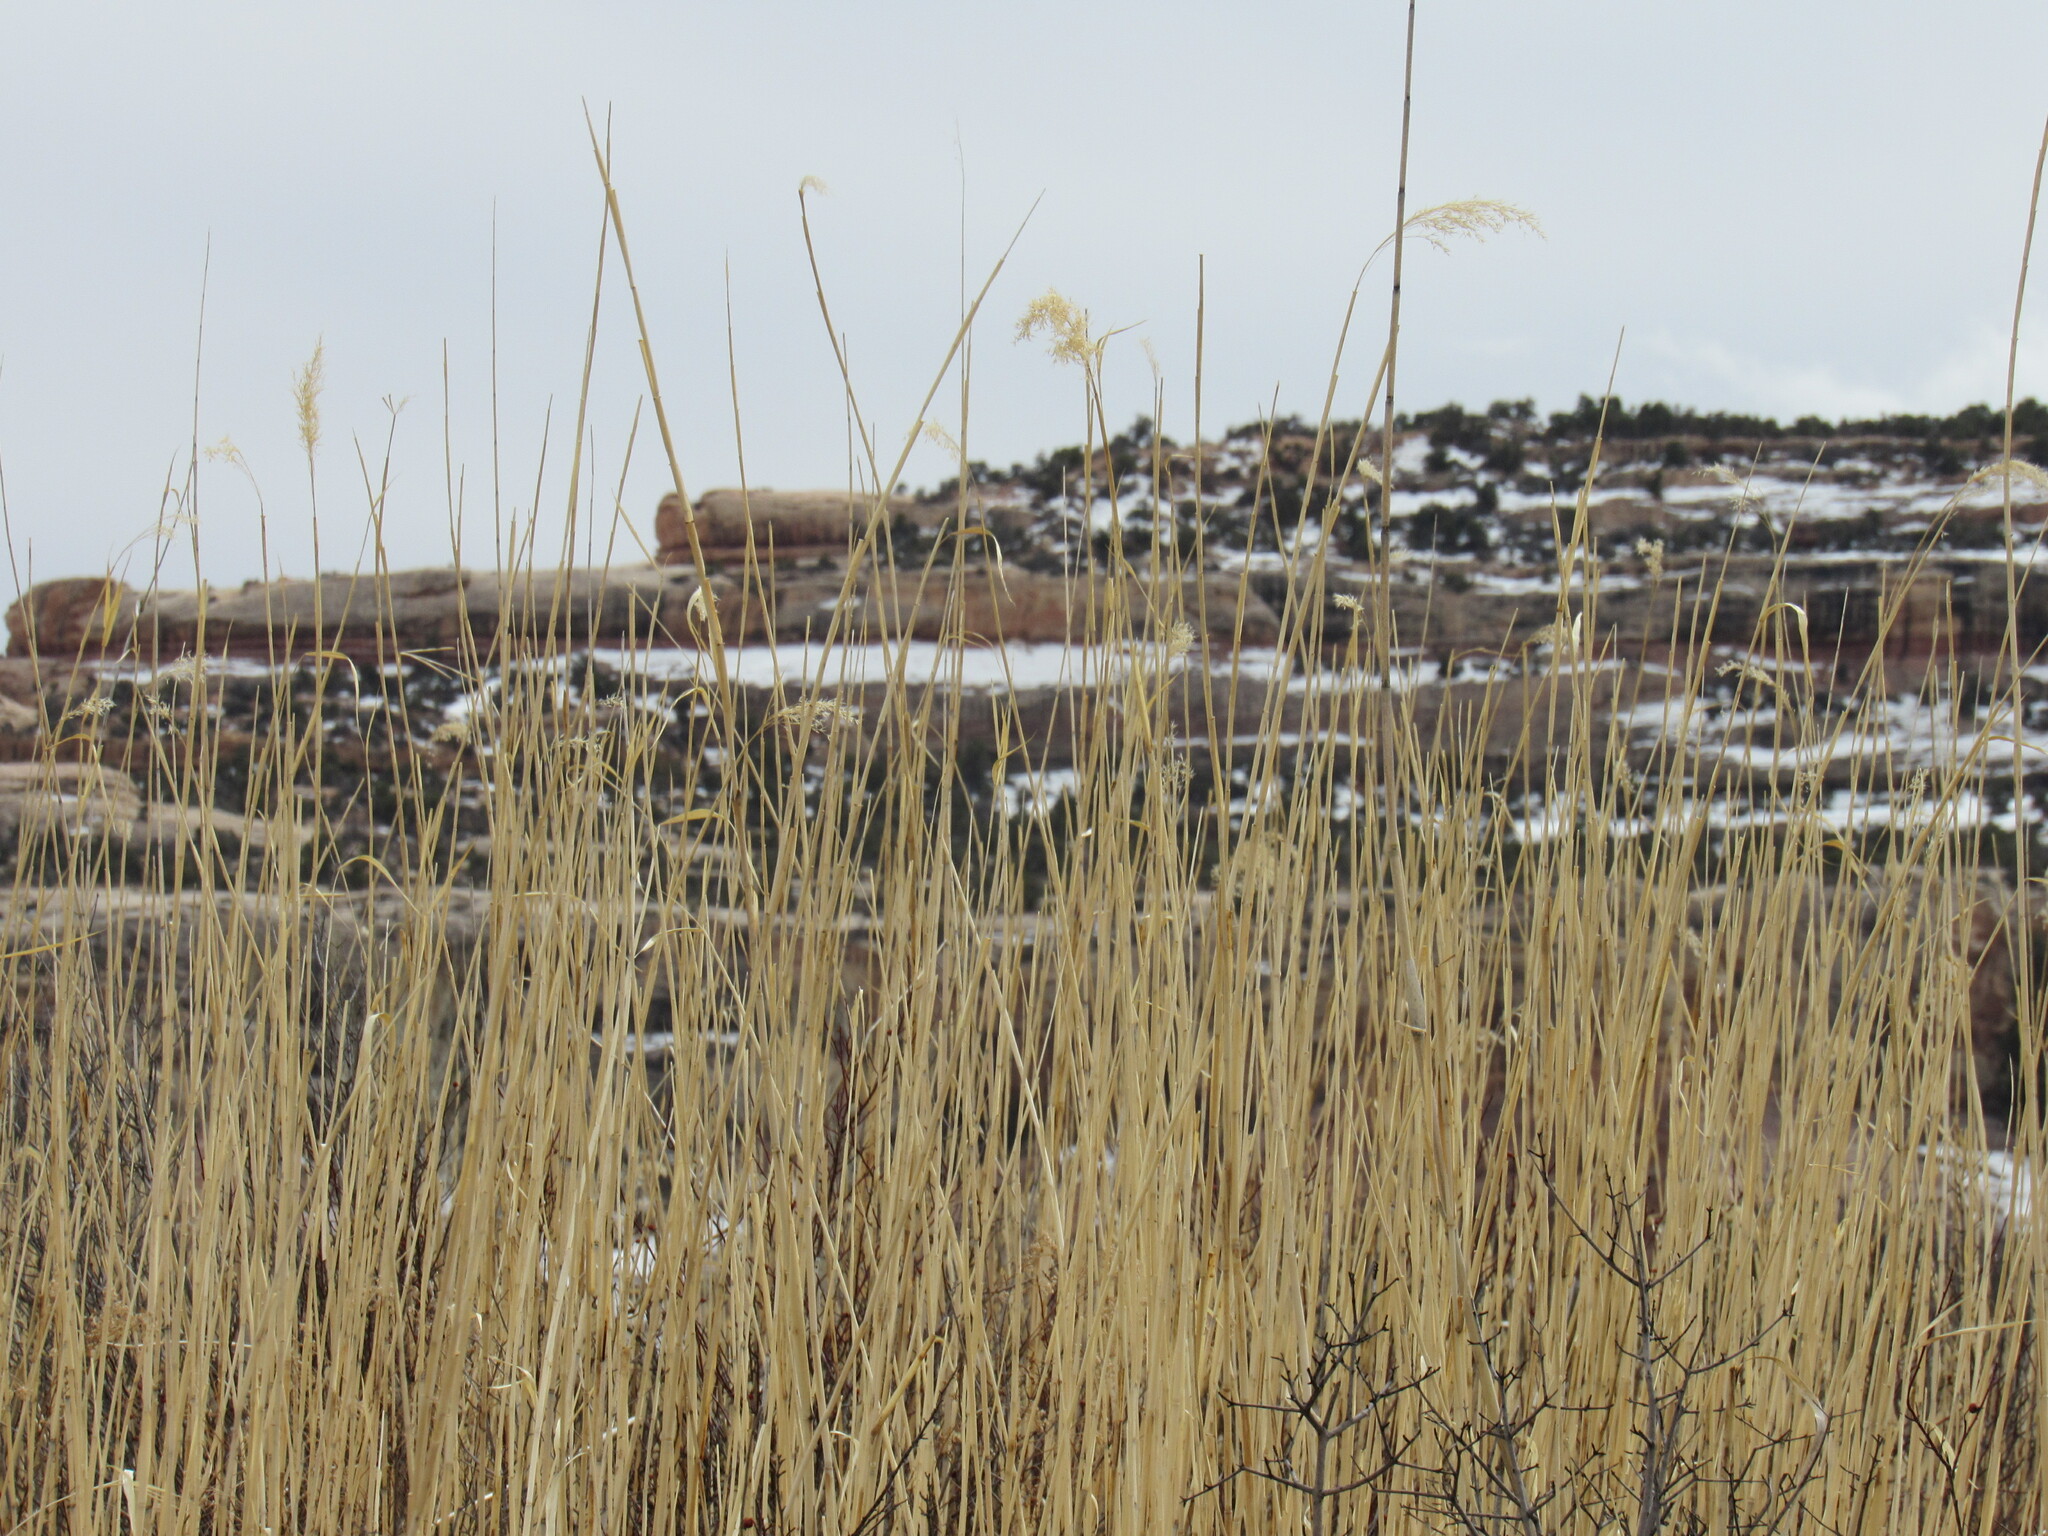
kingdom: Plantae
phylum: Tracheophyta
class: Liliopsida
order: Poales
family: Poaceae
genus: Phragmites
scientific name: Phragmites australis
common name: Common reed
